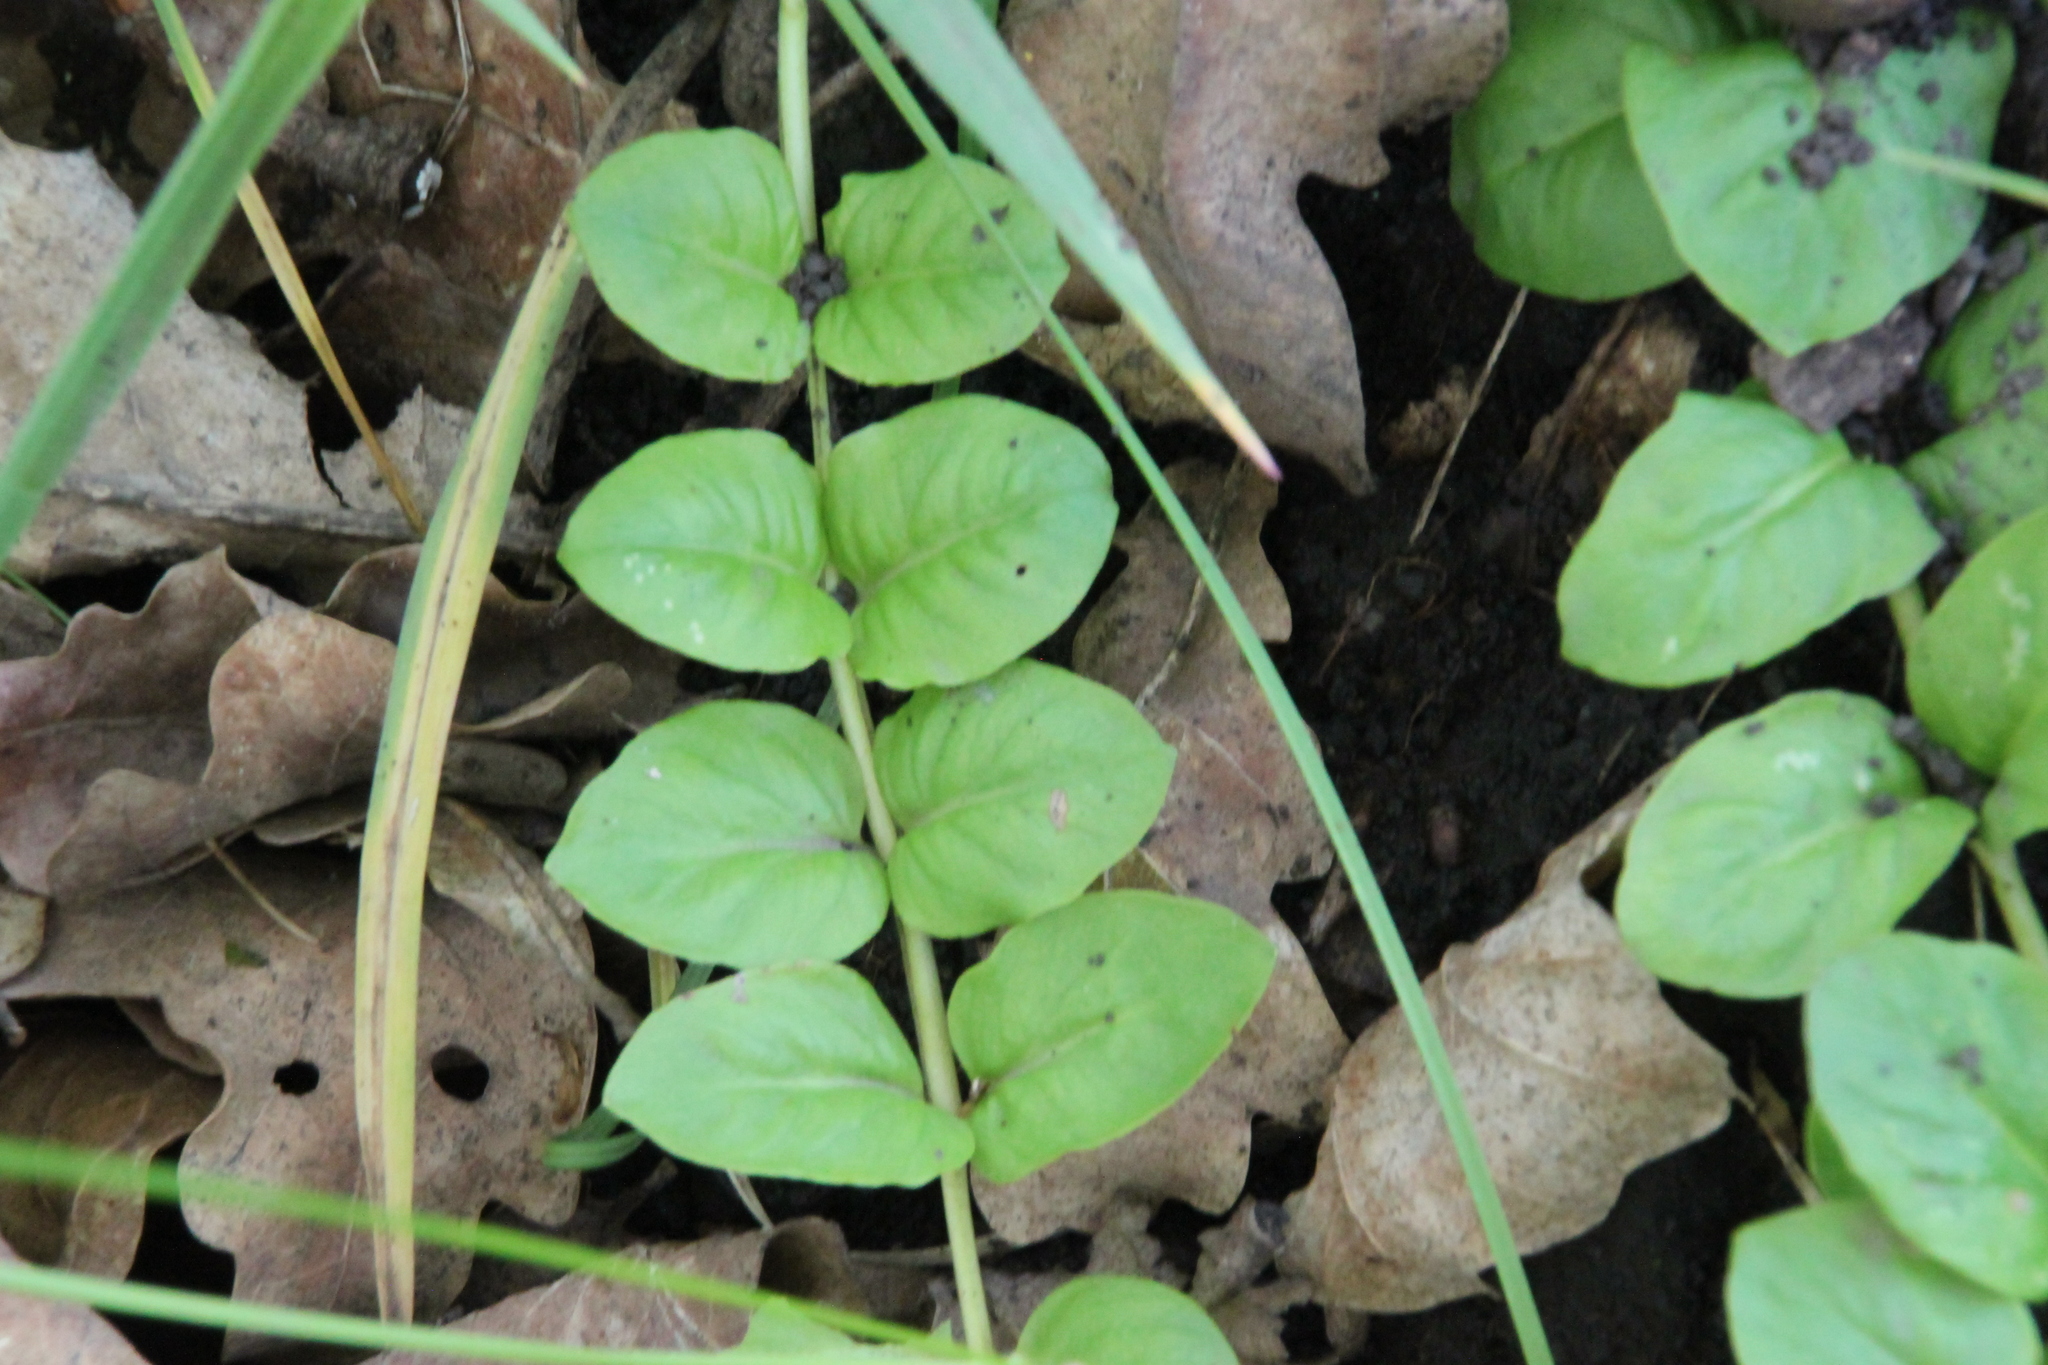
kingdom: Plantae
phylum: Tracheophyta
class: Magnoliopsida
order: Ericales
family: Primulaceae
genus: Lysimachia
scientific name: Lysimachia nummularia
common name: Moneywort
